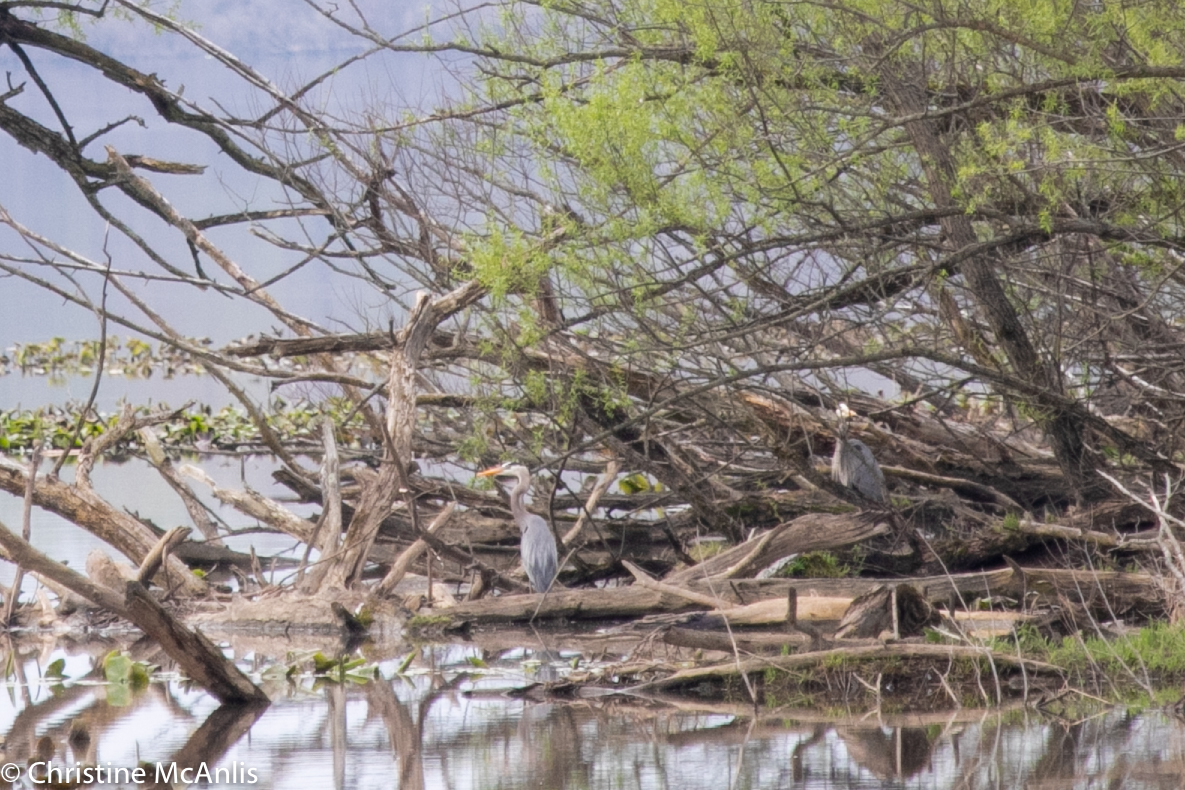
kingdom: Animalia
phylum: Chordata
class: Aves
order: Pelecaniformes
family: Ardeidae
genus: Ardea
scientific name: Ardea herodias
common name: Great blue heron
